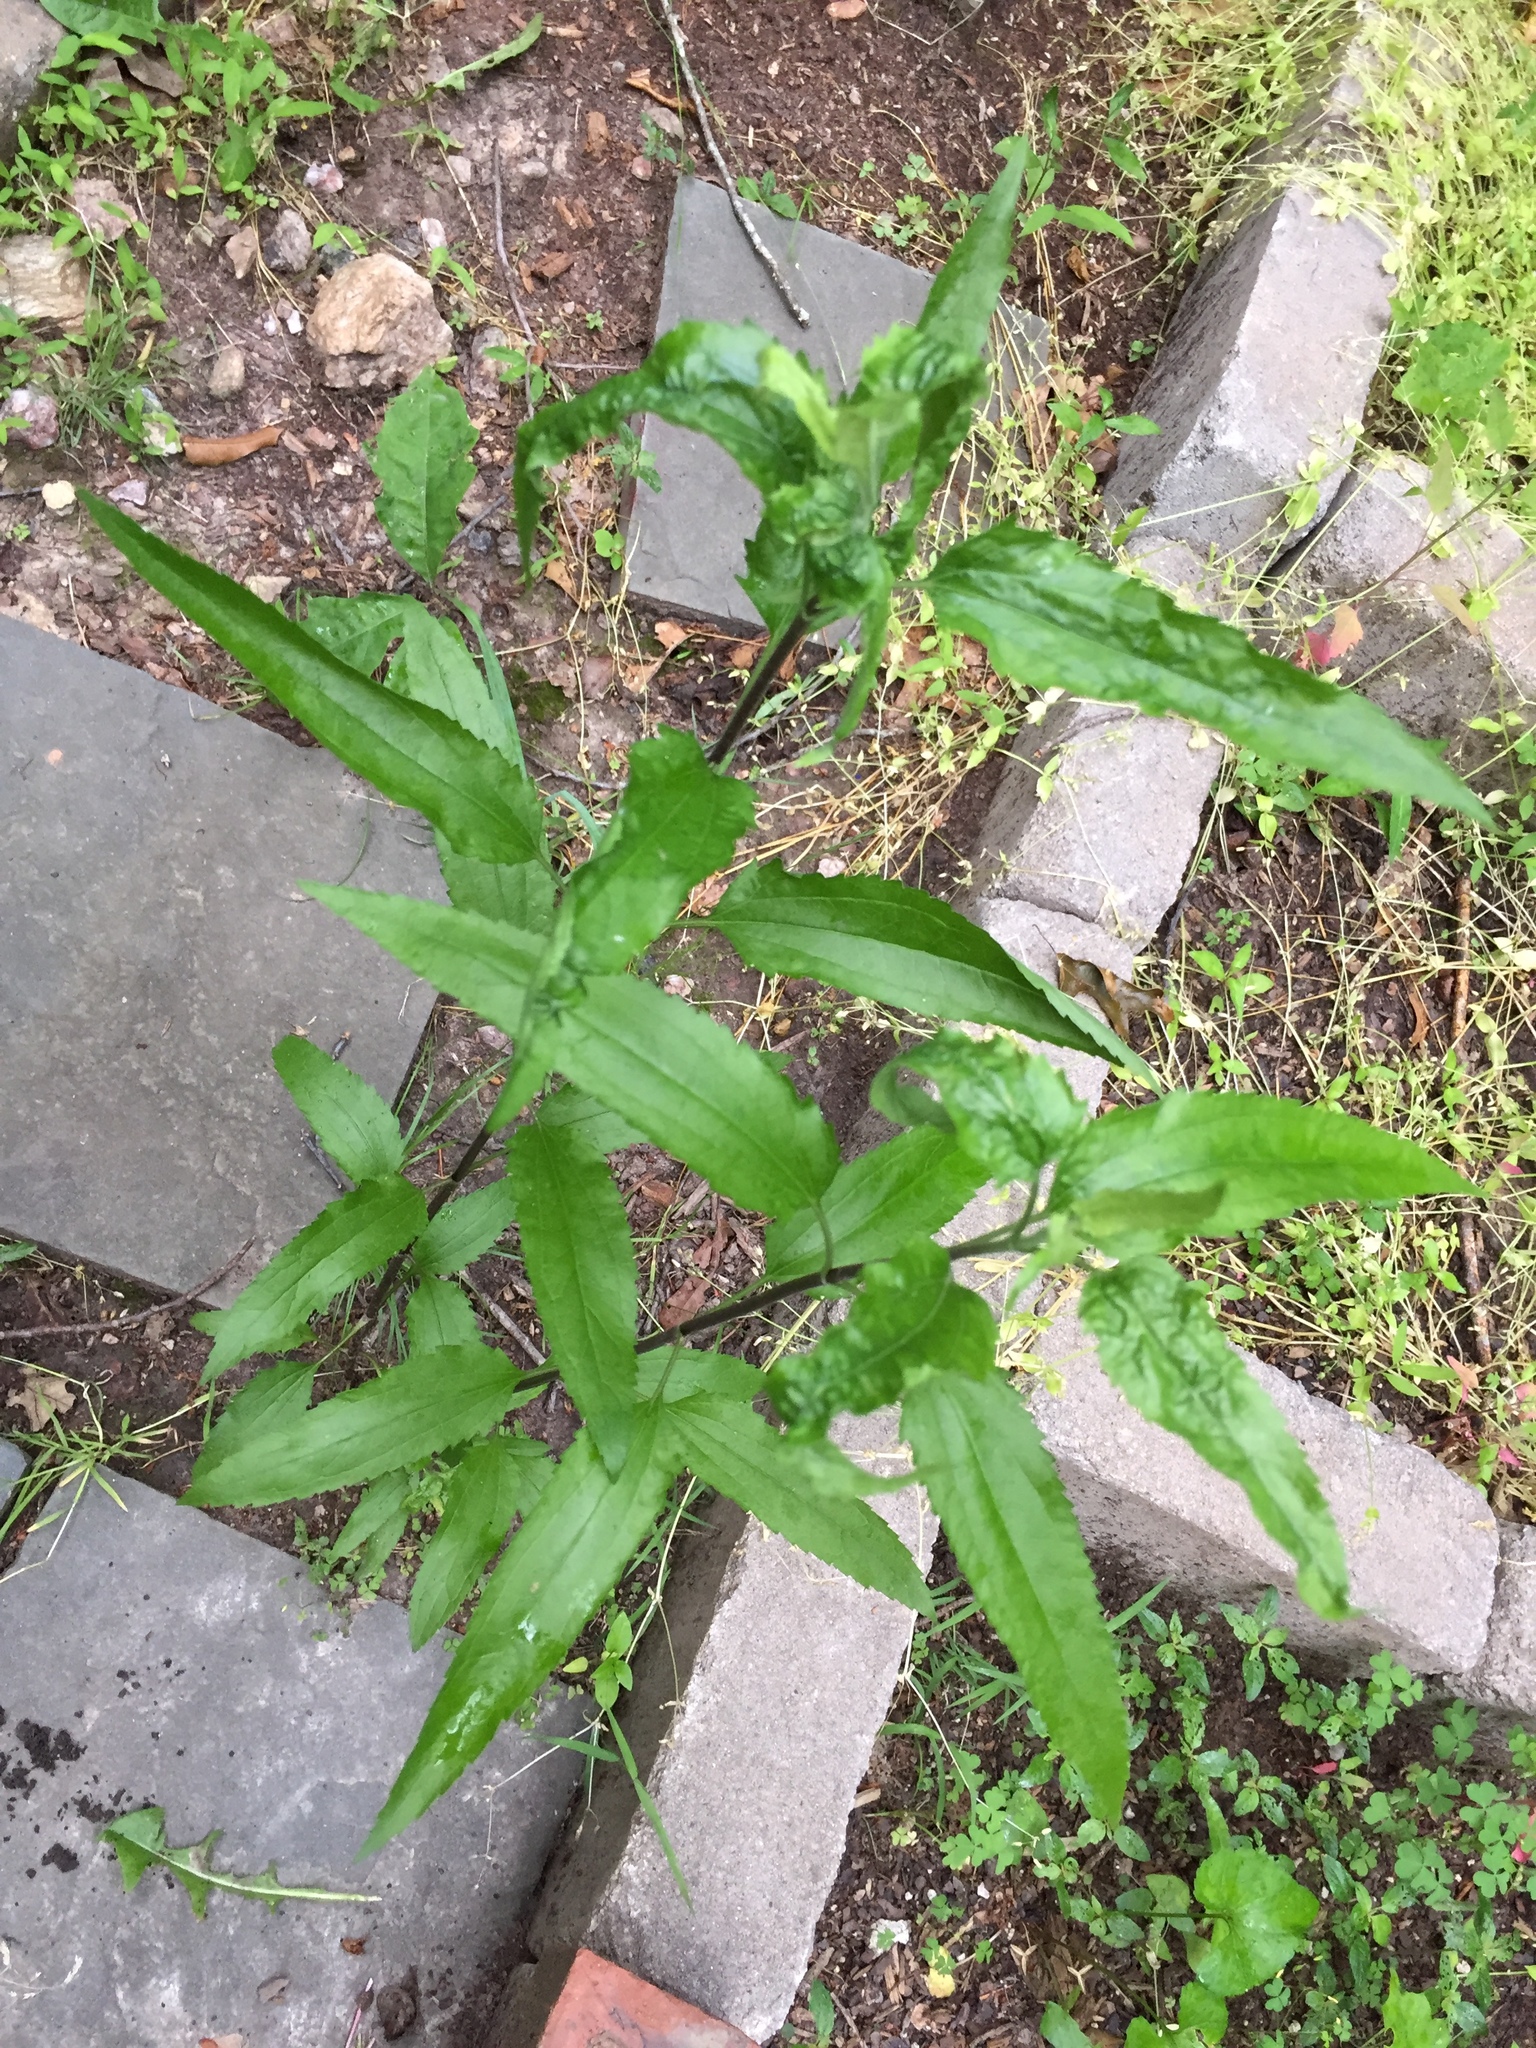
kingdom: Plantae
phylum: Tracheophyta
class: Magnoliopsida
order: Asterales
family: Asteraceae
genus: Eupatorium
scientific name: Eupatorium serotinum
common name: Late boneset
